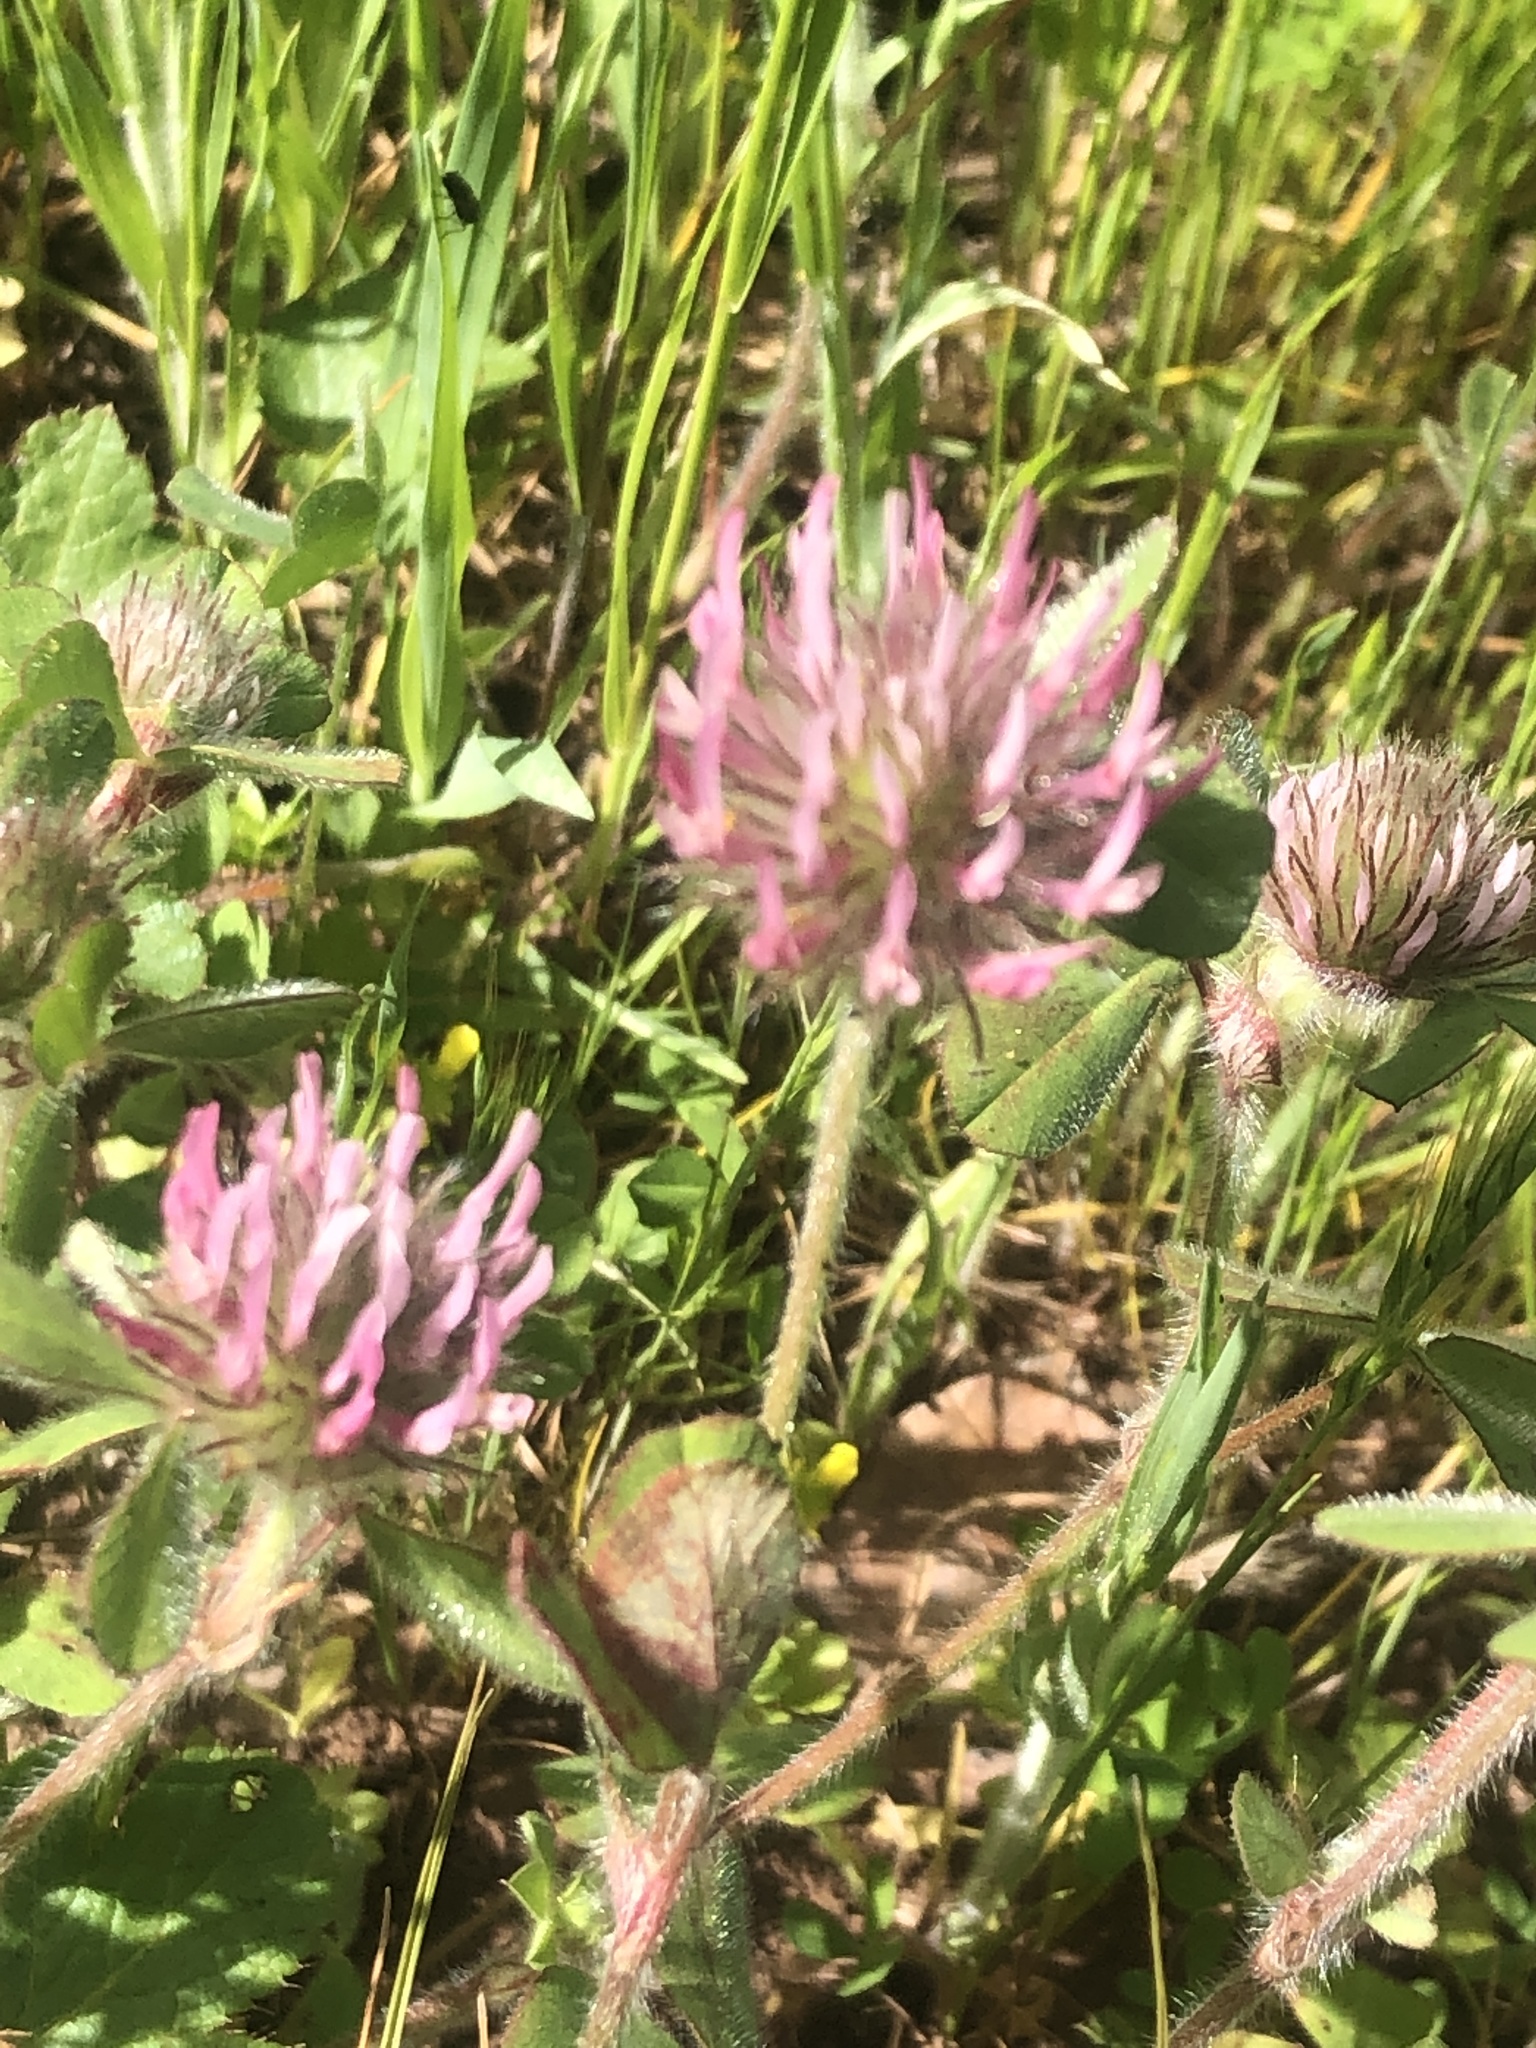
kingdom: Plantae
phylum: Tracheophyta
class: Magnoliopsida
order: Fabales
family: Fabaceae
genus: Trifolium
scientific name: Trifolium hirtum
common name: Rose clover
